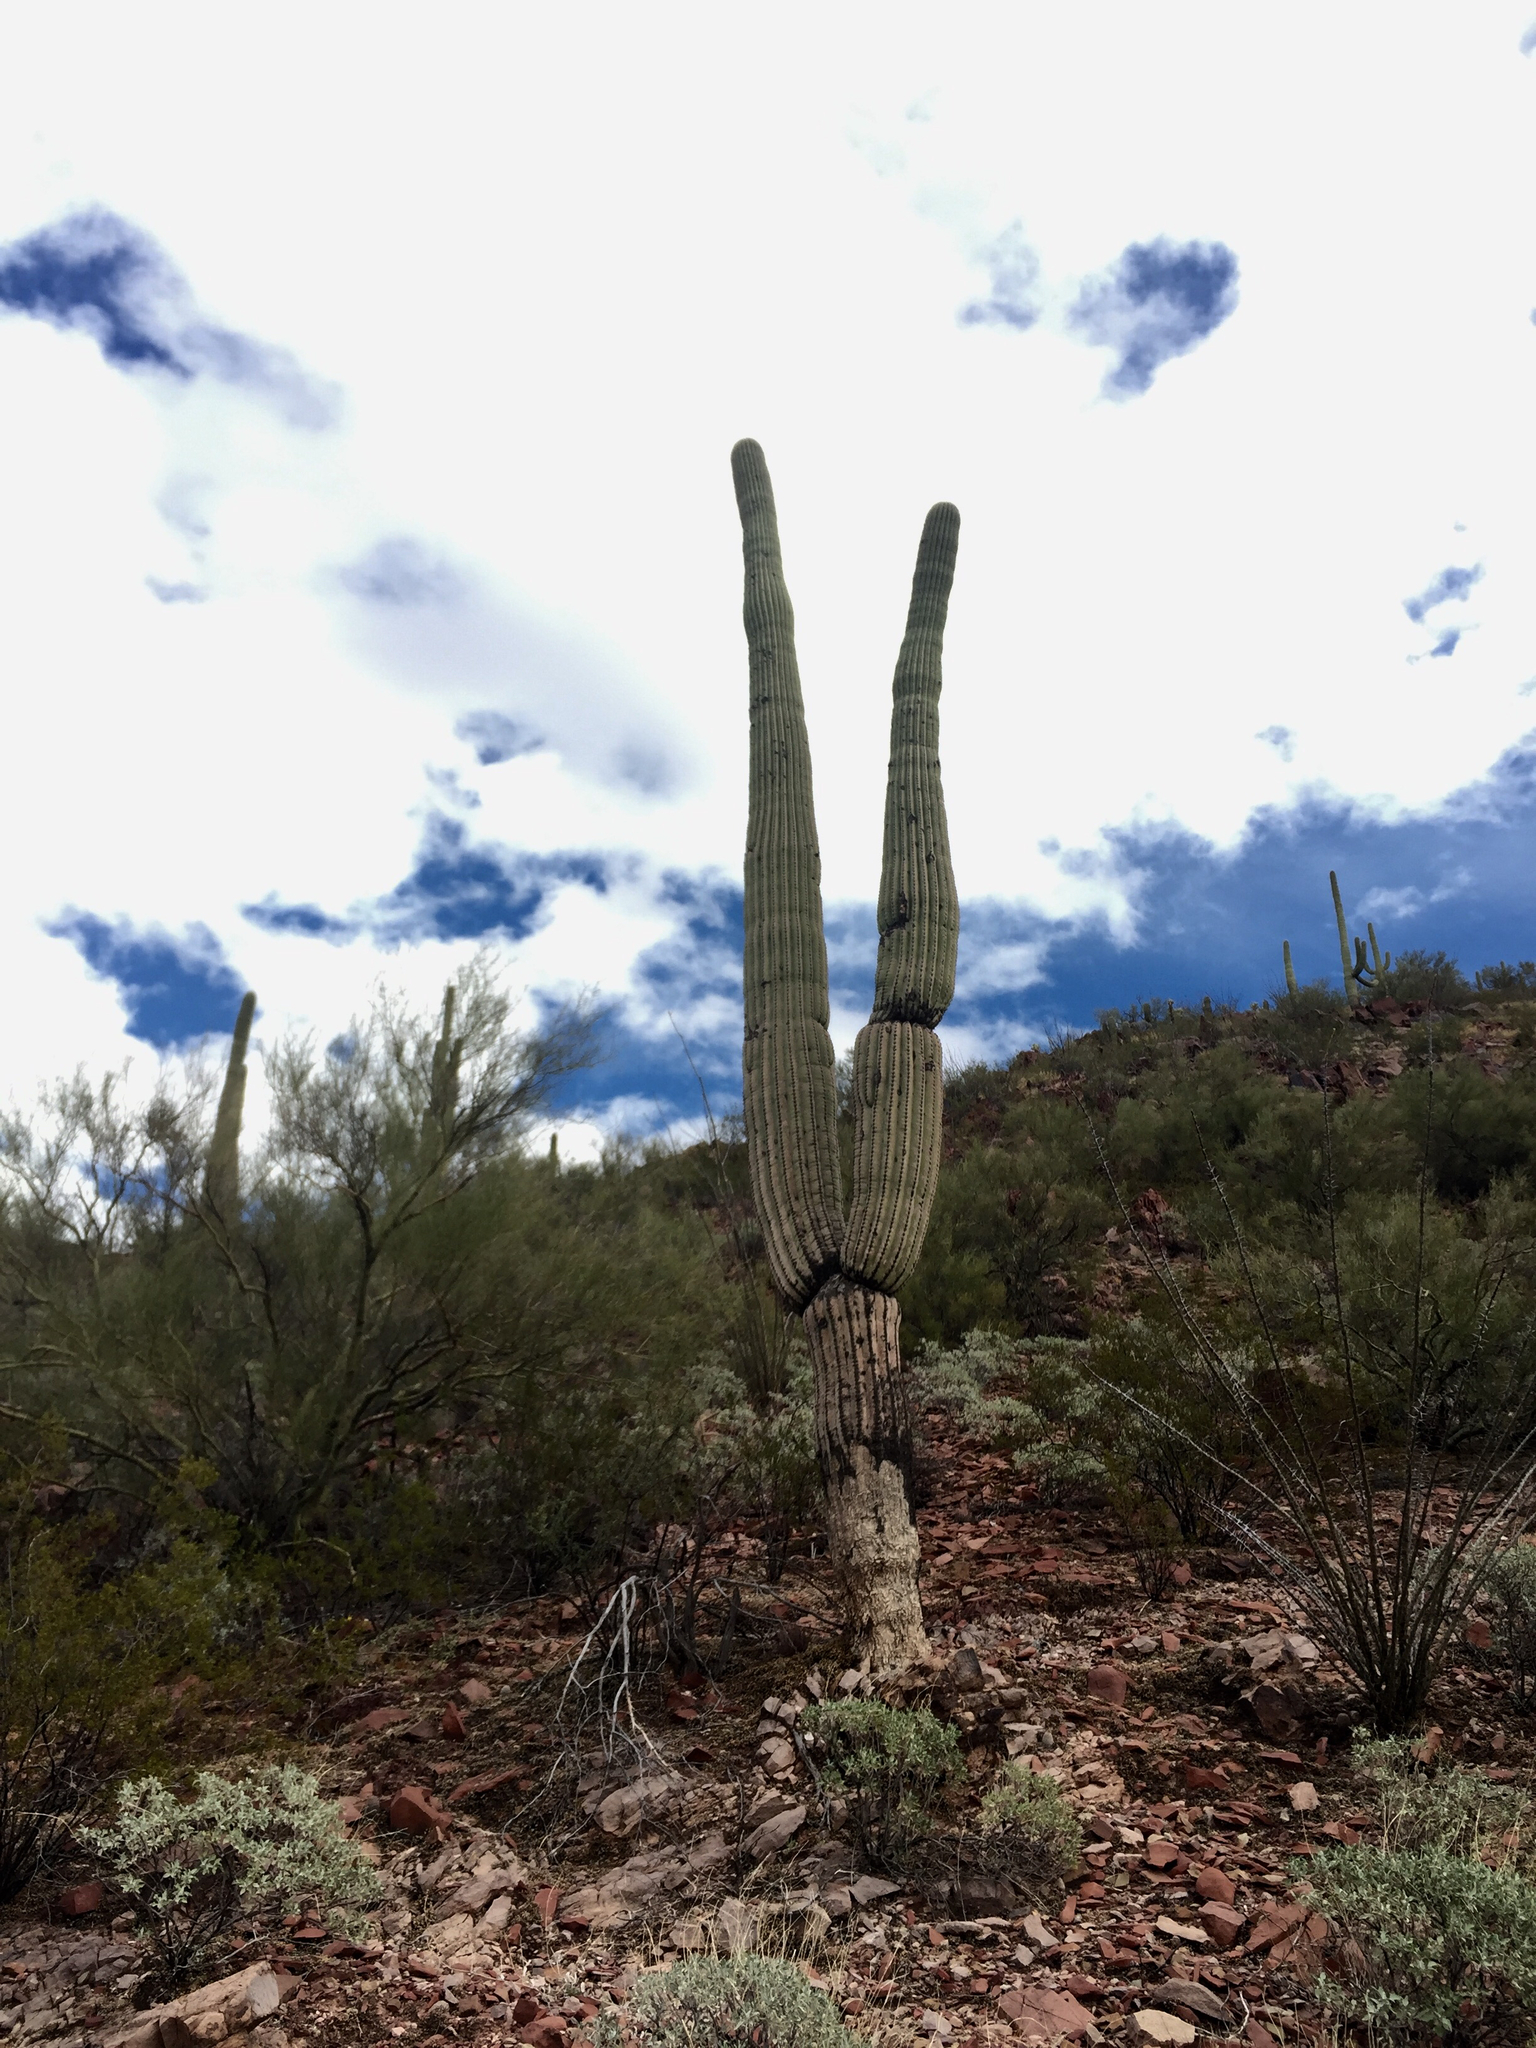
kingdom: Plantae
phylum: Tracheophyta
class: Magnoliopsida
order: Caryophyllales
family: Cactaceae
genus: Carnegiea
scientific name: Carnegiea gigantea
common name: Saguaro
